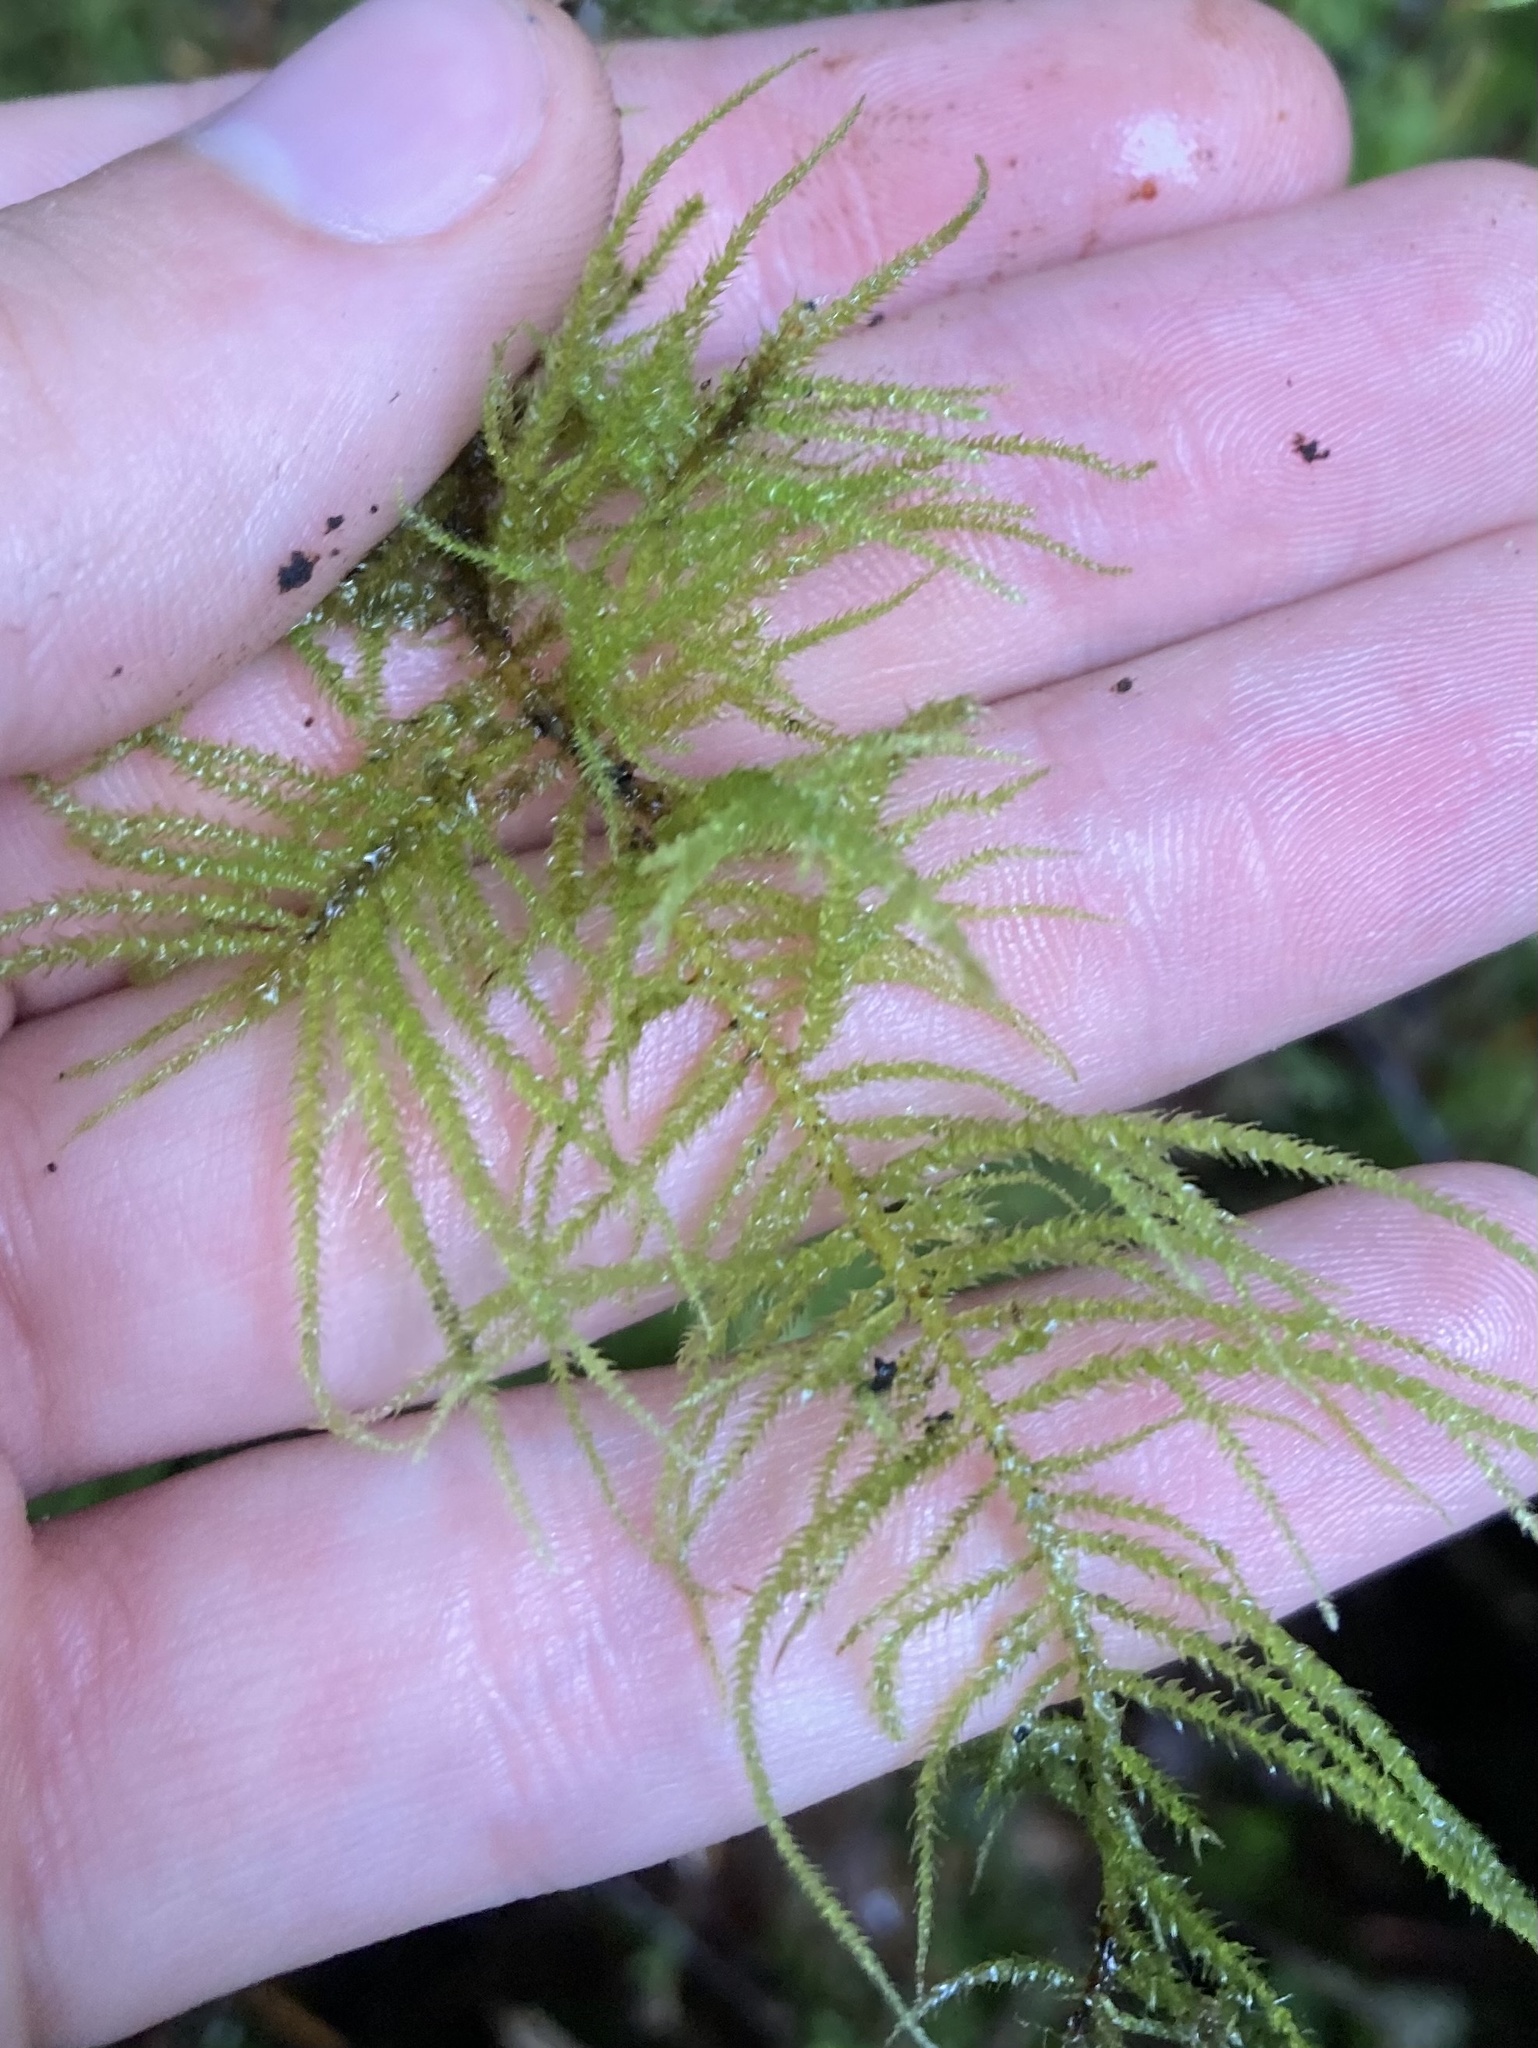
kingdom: Plantae
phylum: Bryophyta
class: Bryopsida
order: Hypnales
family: Brachytheciaceae
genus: Kindbergia
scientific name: Kindbergia oregana
